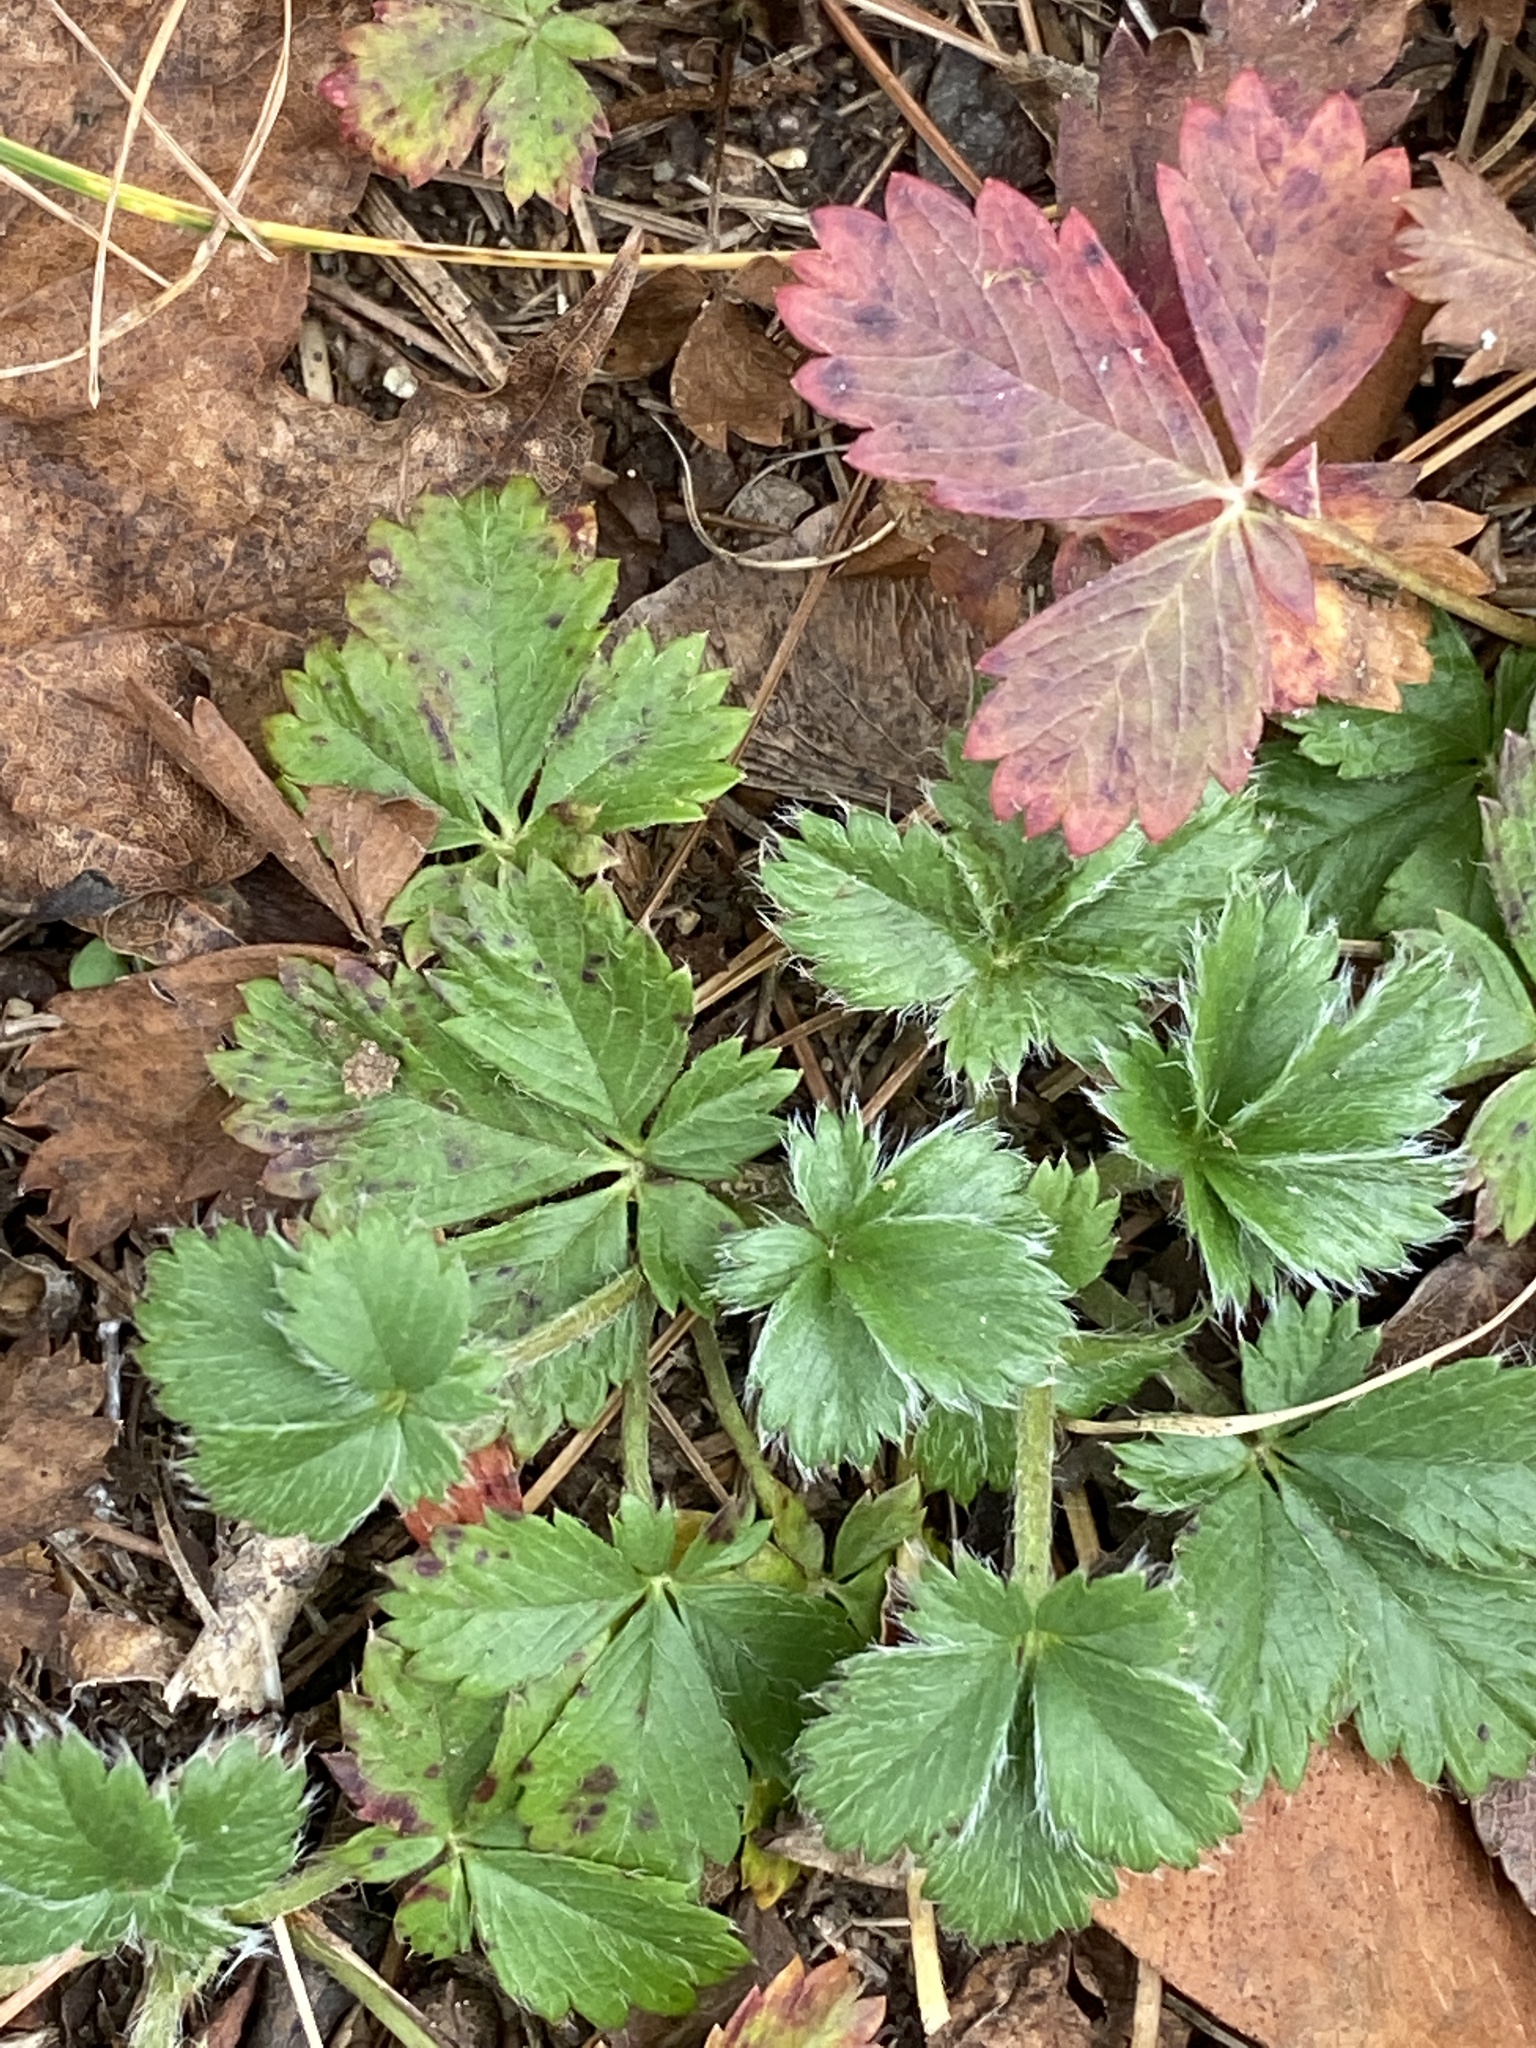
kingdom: Plantae
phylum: Tracheophyta
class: Magnoliopsida
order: Rosales
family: Rosaceae
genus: Potentilla
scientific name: Potentilla canadensis
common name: Canada cinquefoil
